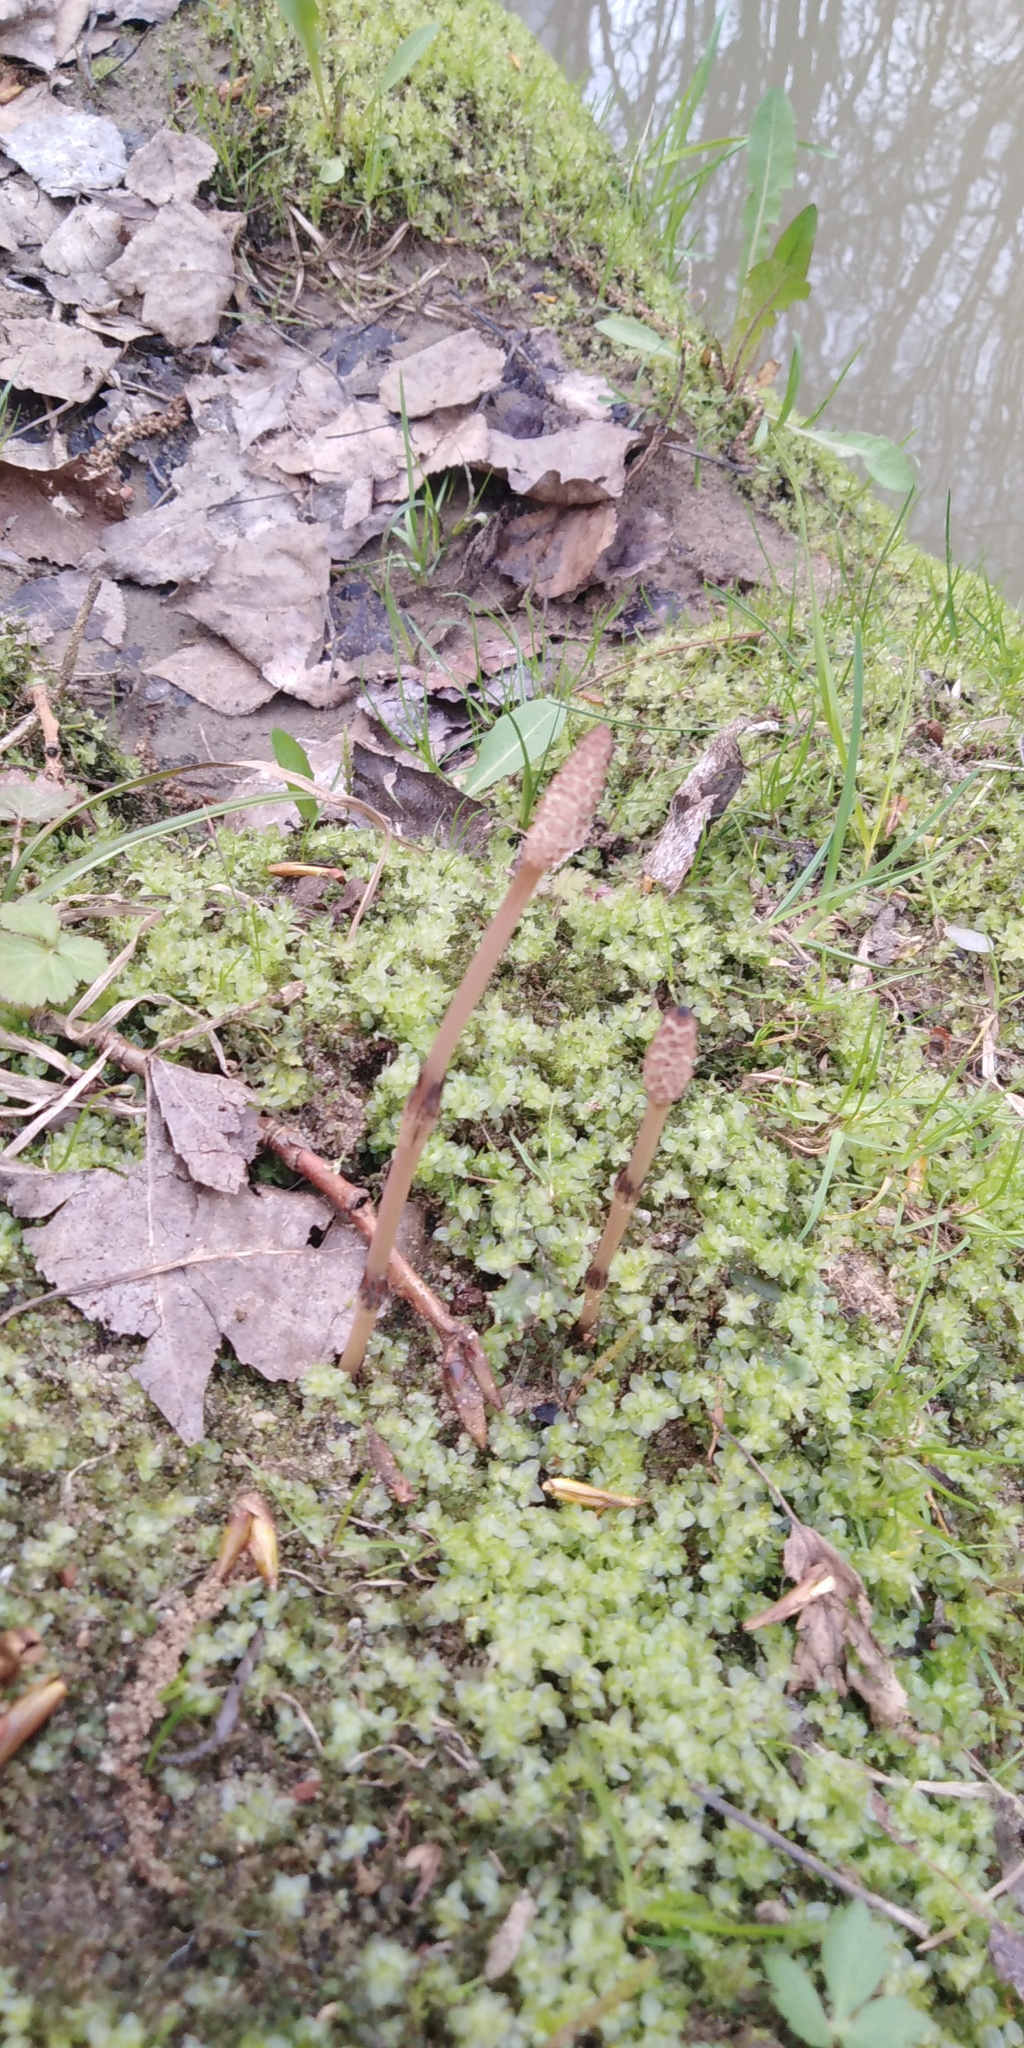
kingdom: Plantae
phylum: Tracheophyta
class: Polypodiopsida
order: Equisetales
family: Equisetaceae
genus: Equisetum
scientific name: Equisetum arvense
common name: Field horsetail
